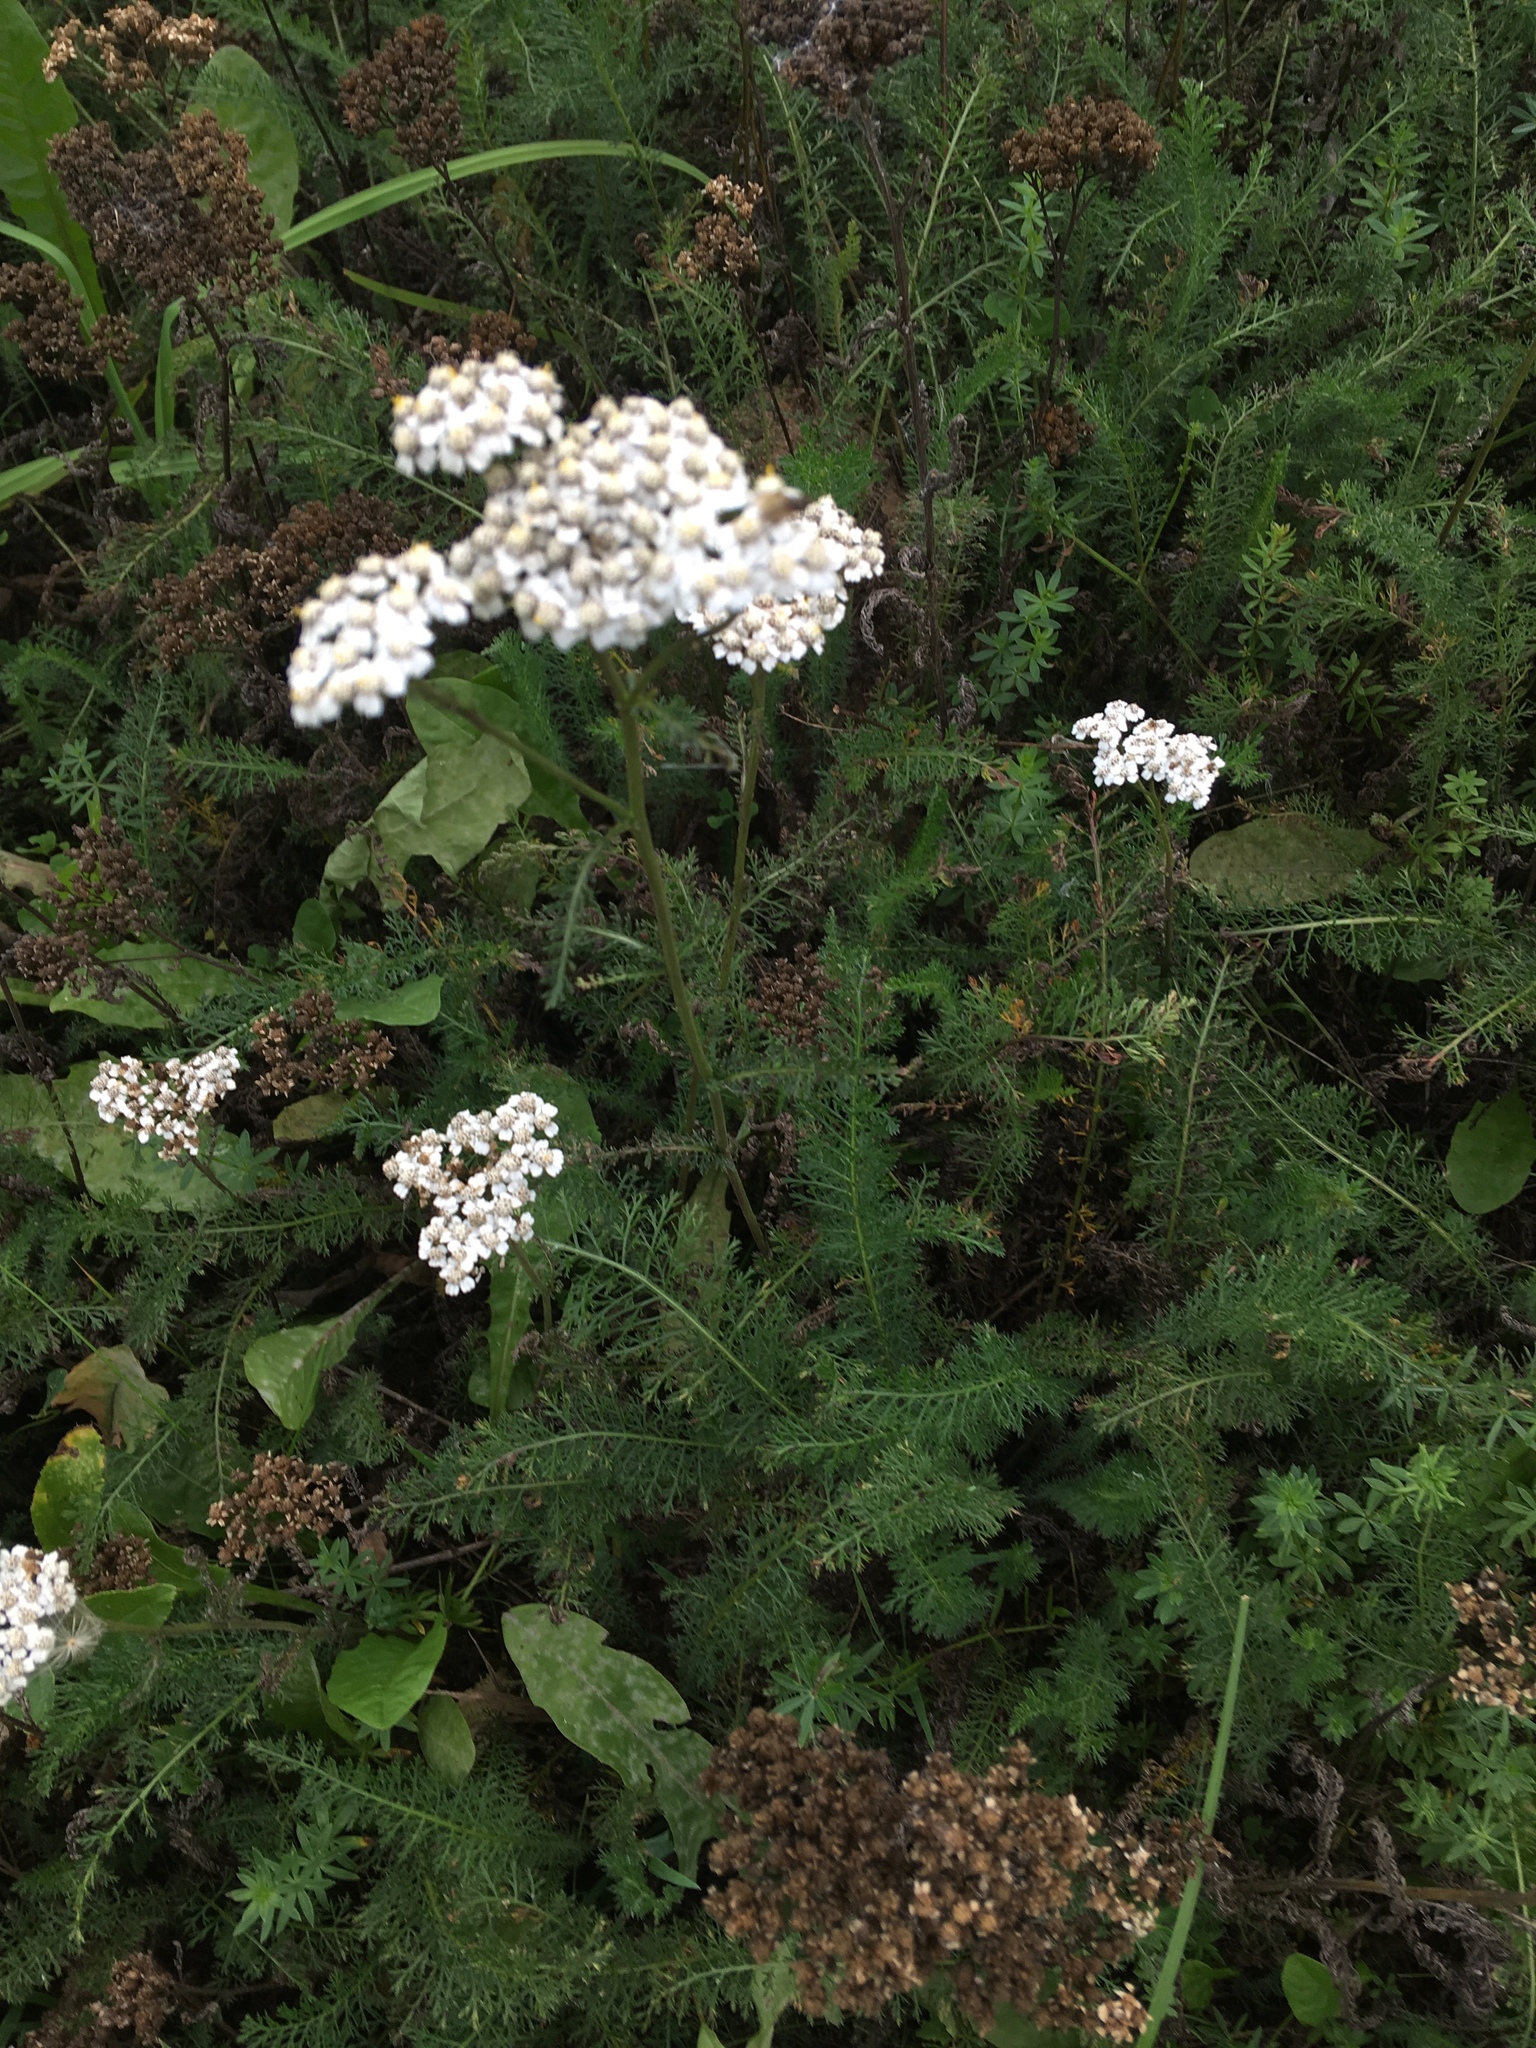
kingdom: Plantae
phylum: Tracheophyta
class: Magnoliopsida
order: Asterales
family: Asteraceae
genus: Achillea
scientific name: Achillea millefolium
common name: Yarrow
